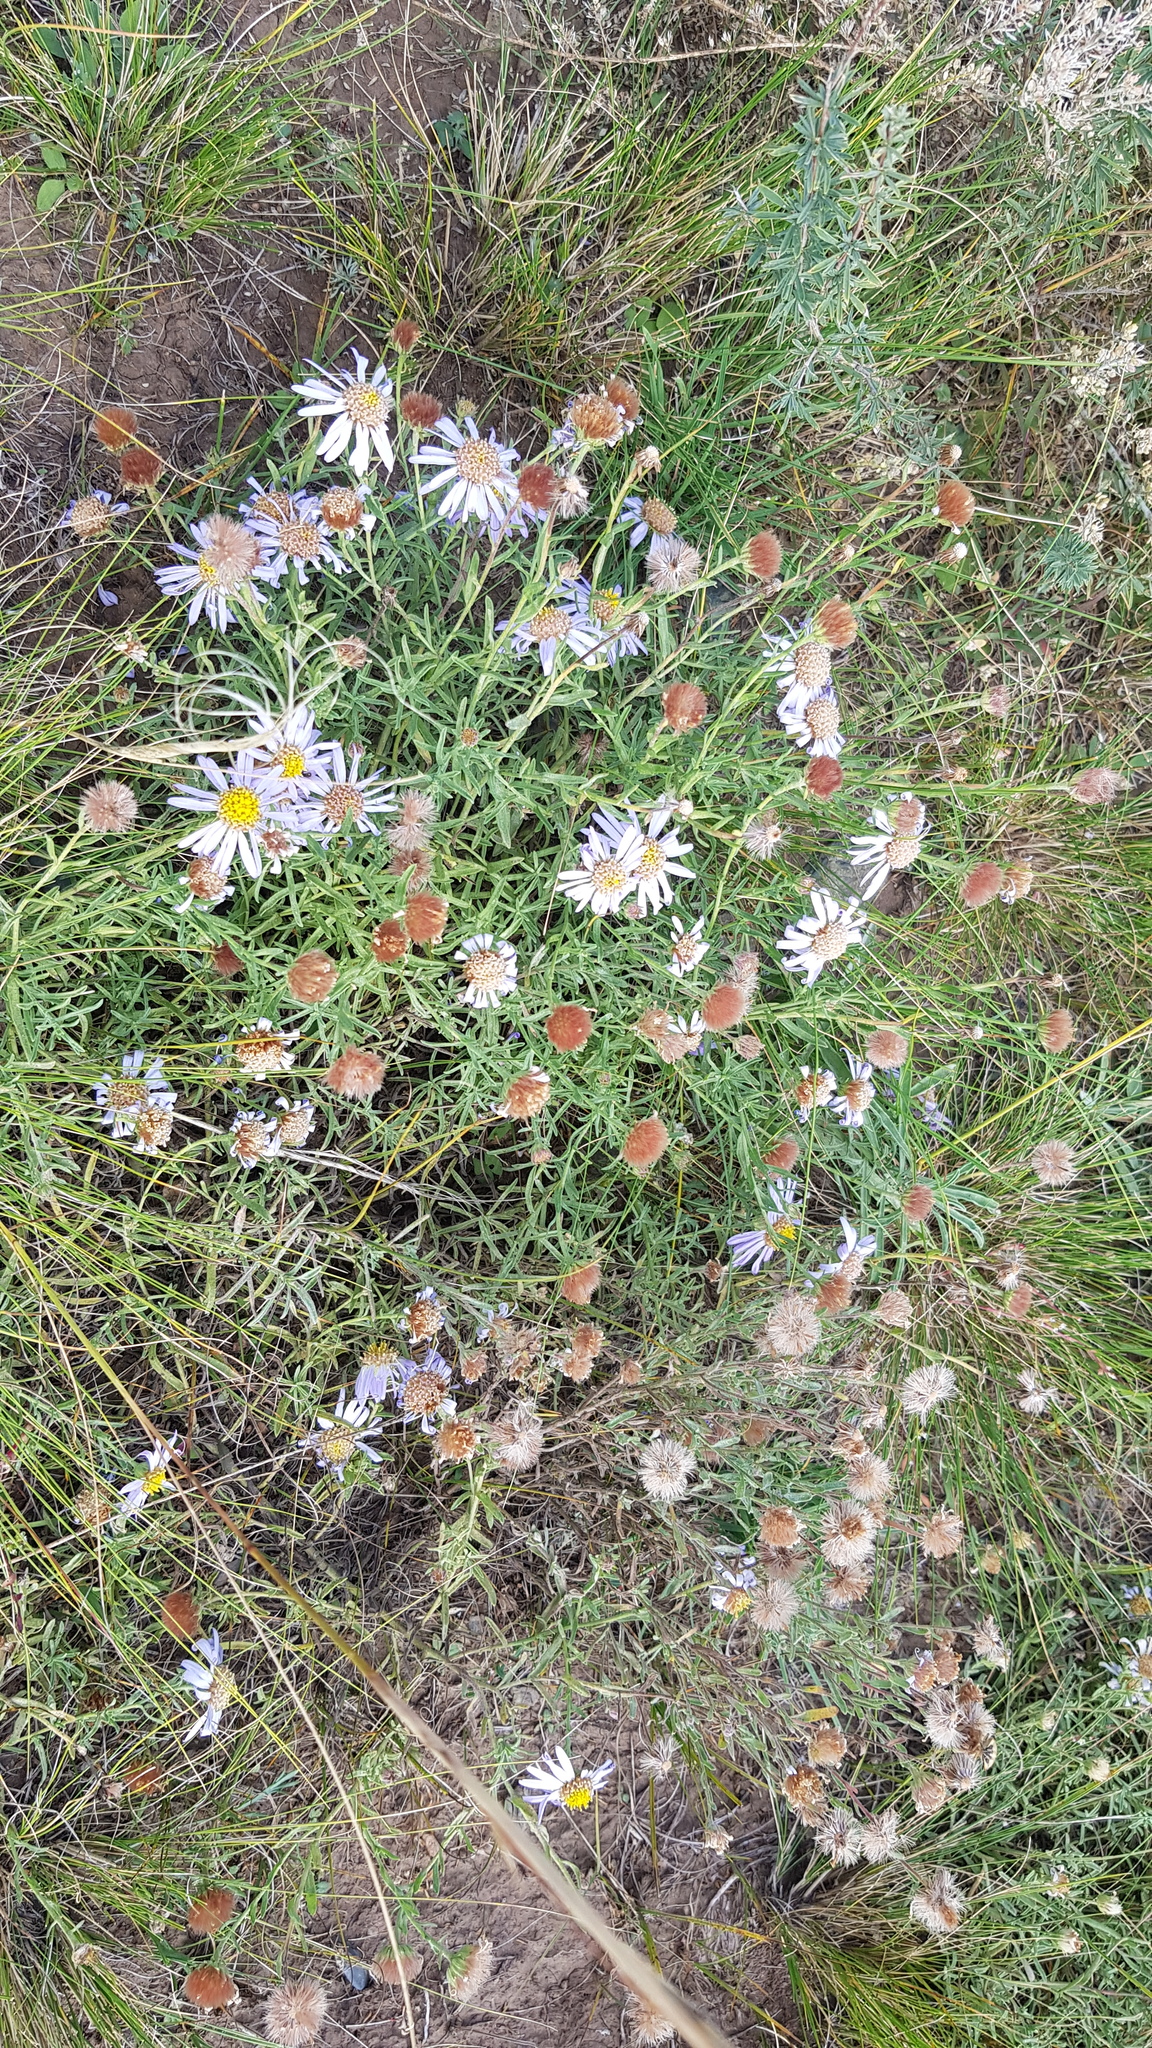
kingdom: Plantae
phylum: Tracheophyta
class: Magnoliopsida
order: Asterales
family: Asteraceae
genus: Heteropappus
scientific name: Heteropappus altaicus
